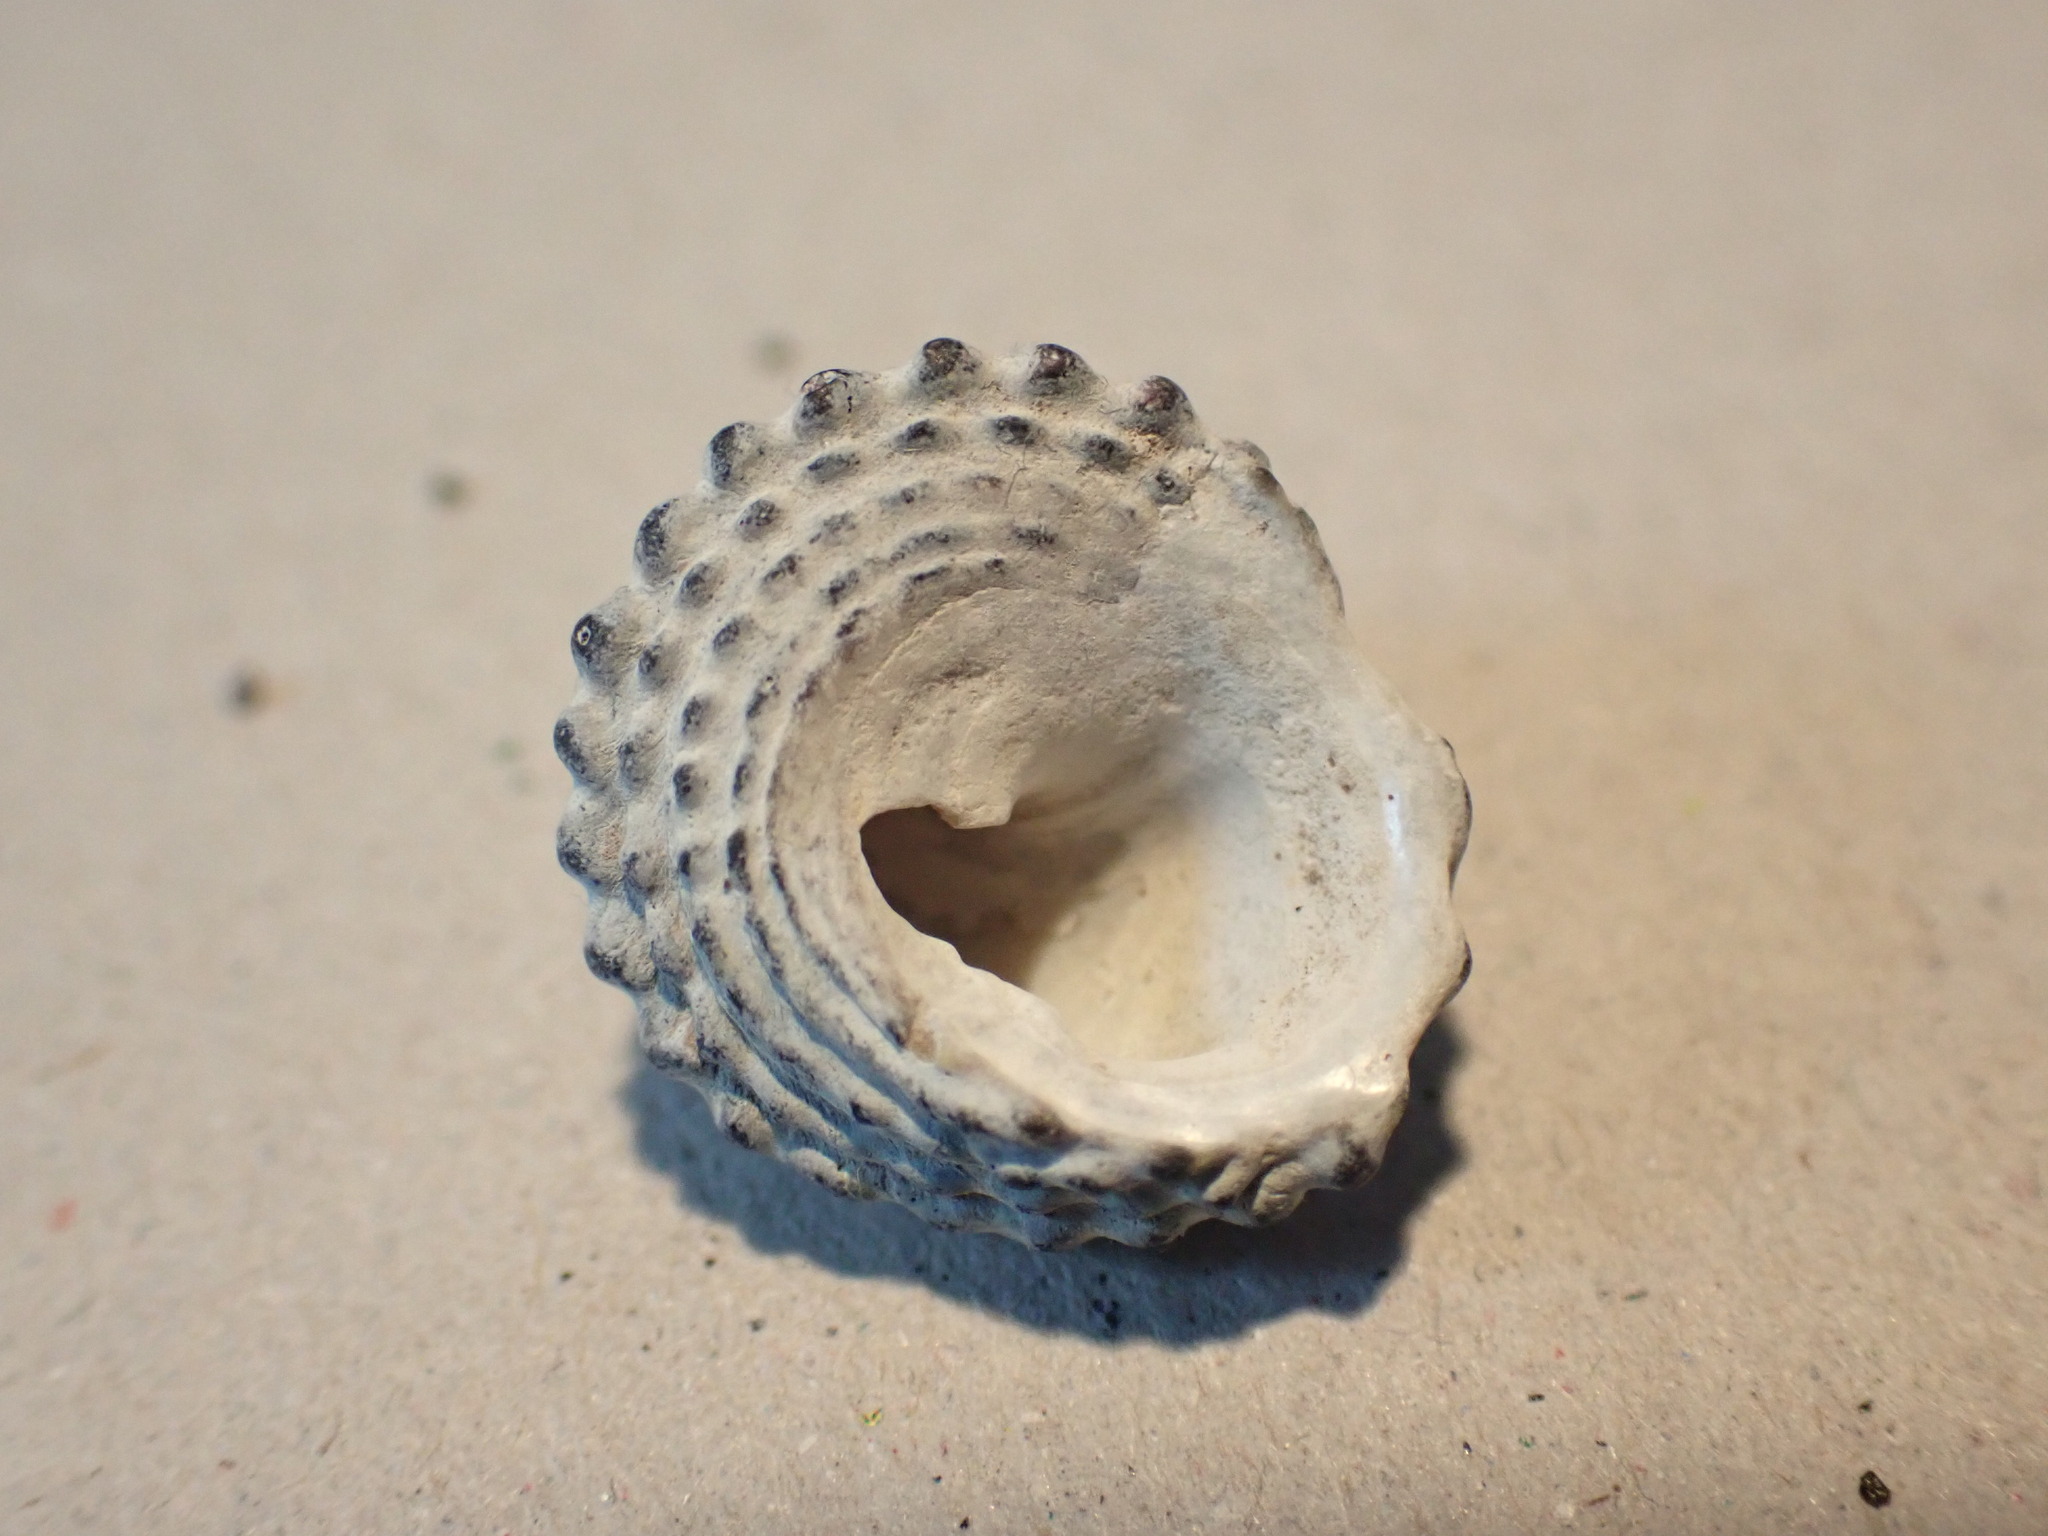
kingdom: Animalia
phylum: Mollusca
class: Gastropoda
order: Trochida
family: Trochidae
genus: Diloma
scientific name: Diloma bicanaliculatum
